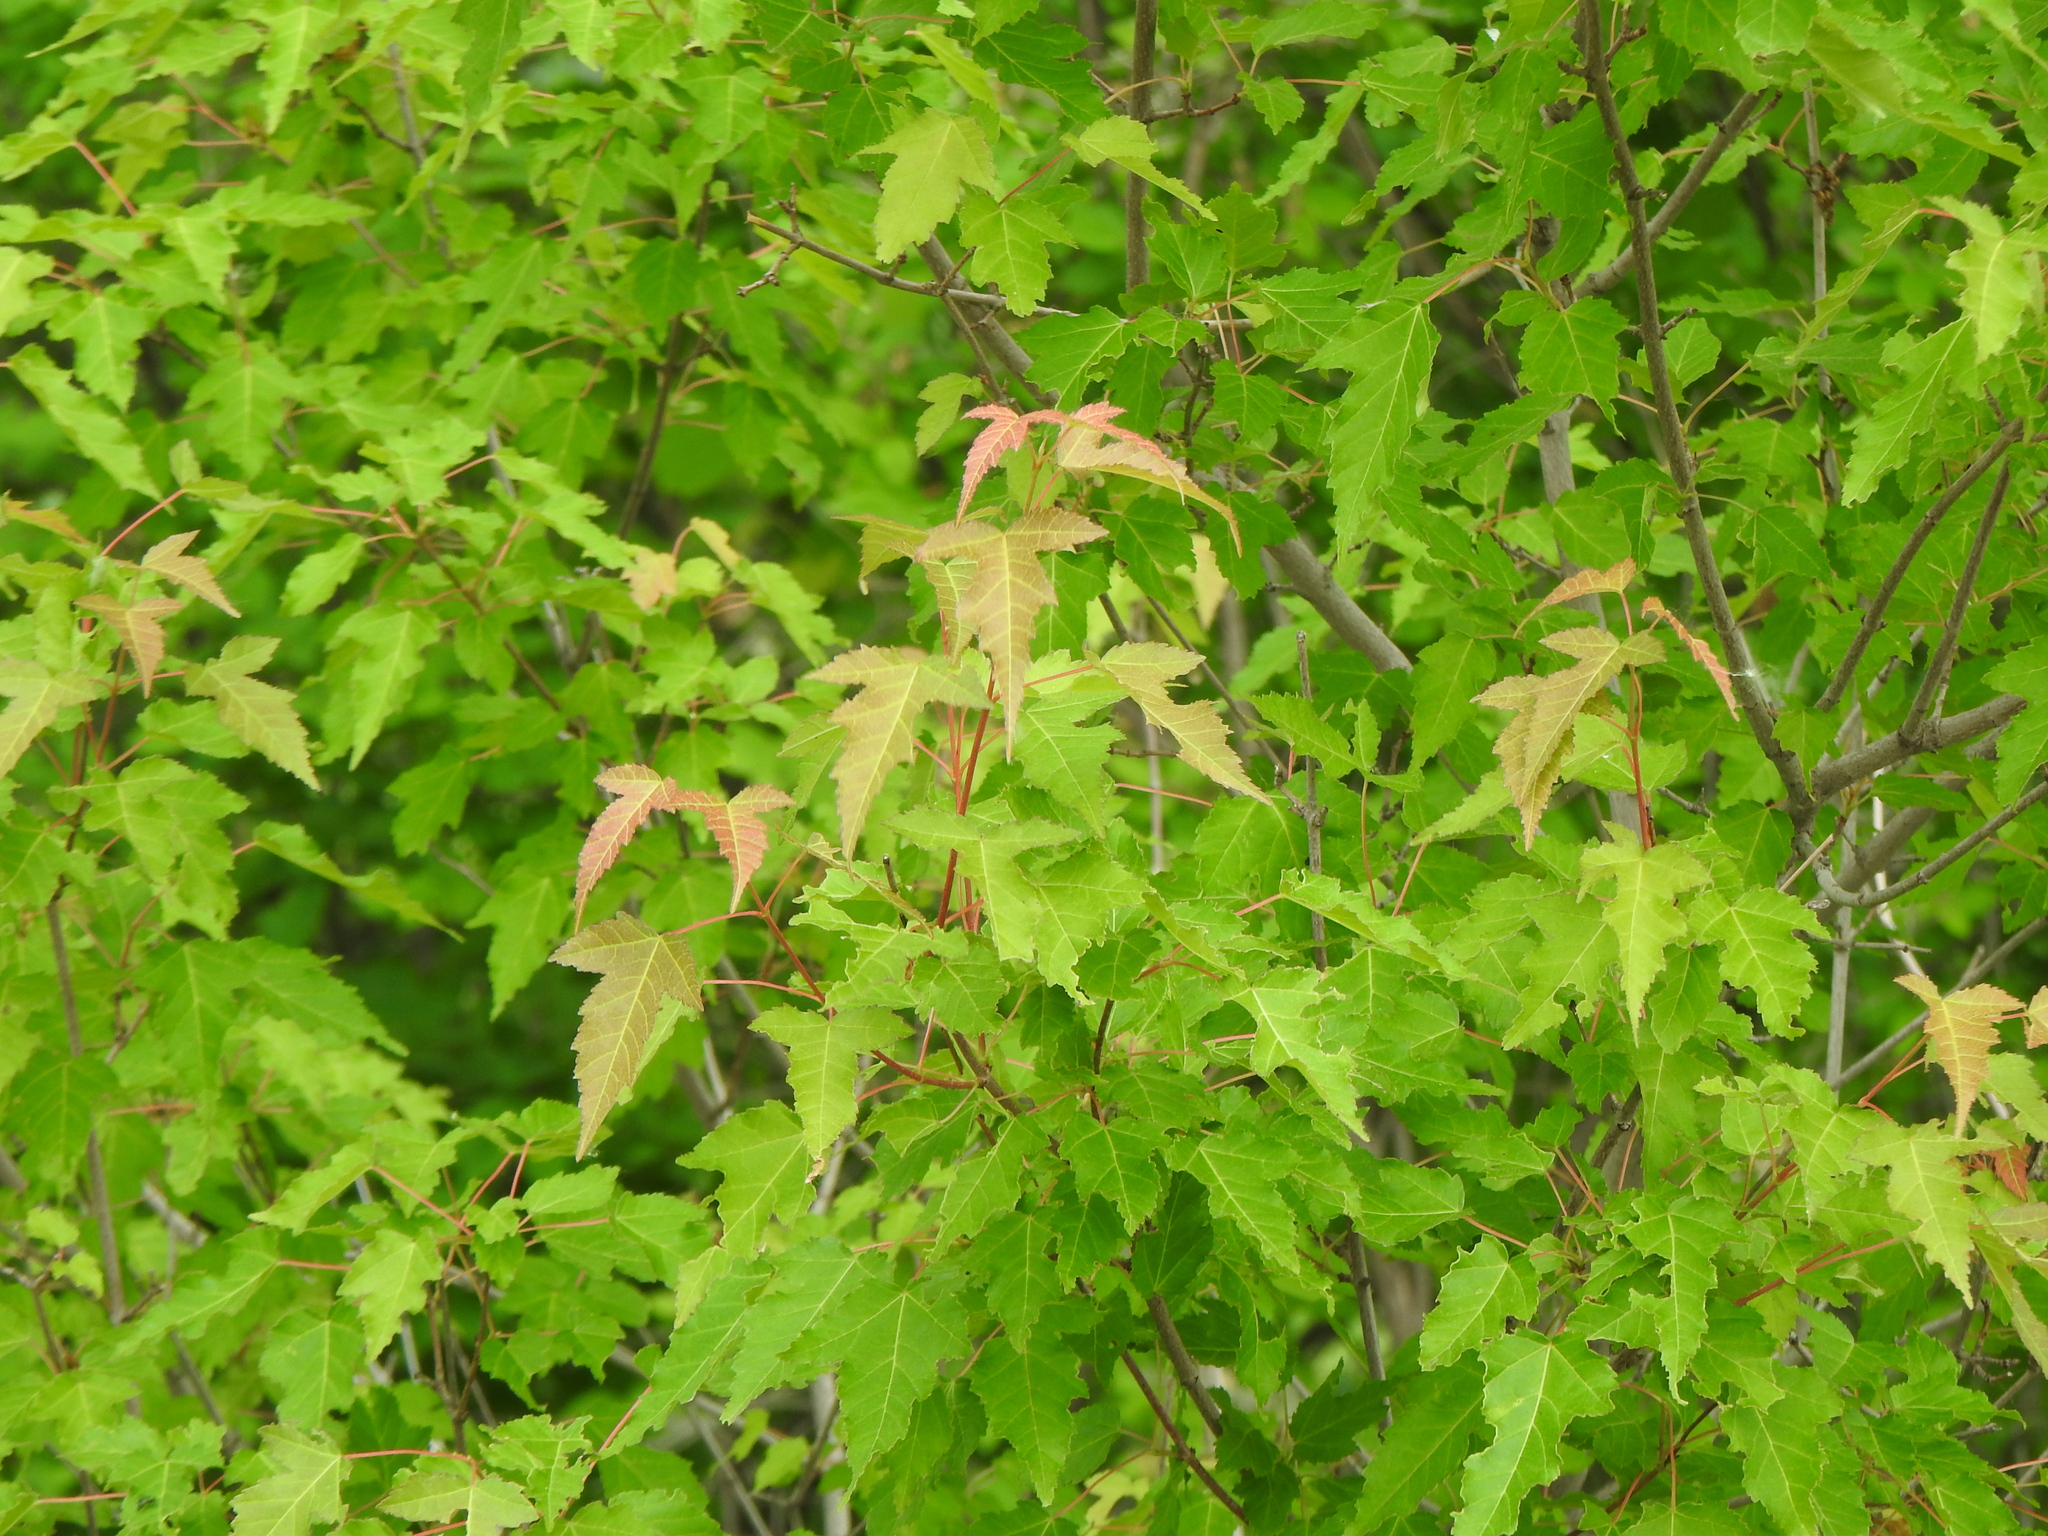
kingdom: Plantae
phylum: Tracheophyta
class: Magnoliopsida
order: Sapindales
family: Sapindaceae
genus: Acer
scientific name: Acer tataricum
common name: Tartar maple
